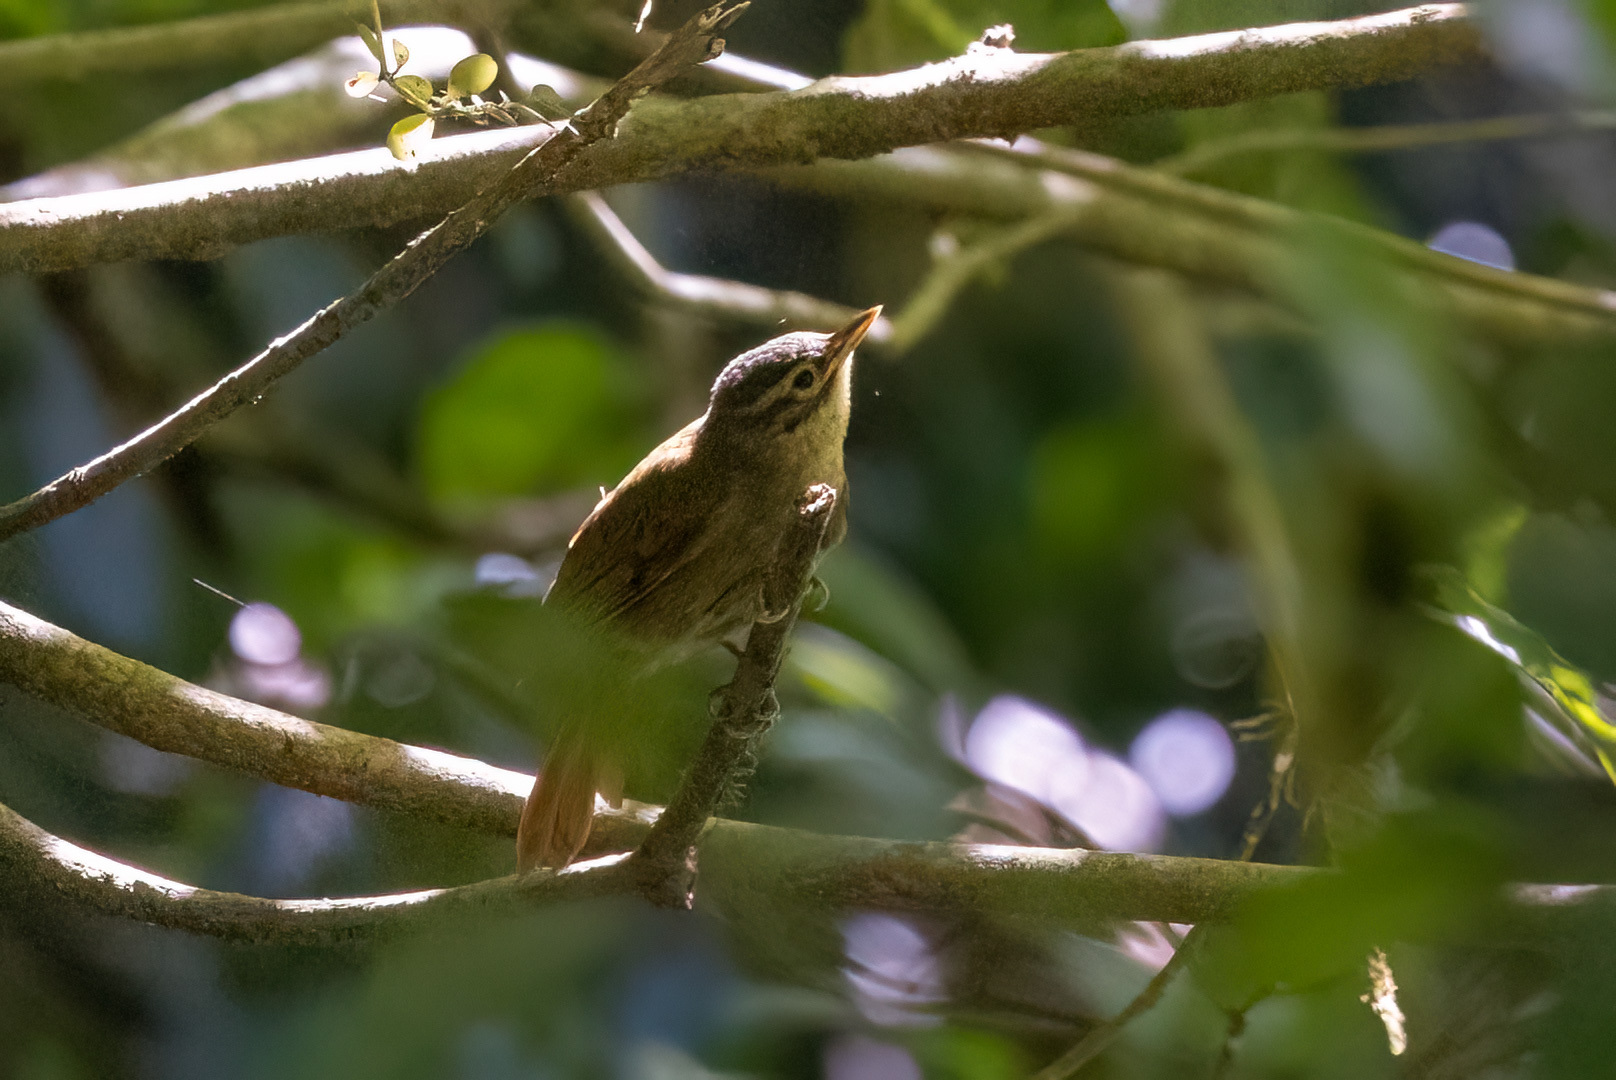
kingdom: Animalia
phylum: Chordata
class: Aves
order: Passeriformes
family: Furnariidae
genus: Anabacerthia
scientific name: Anabacerthia variegaticeps
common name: Scaly-throated foliage-gleaner
